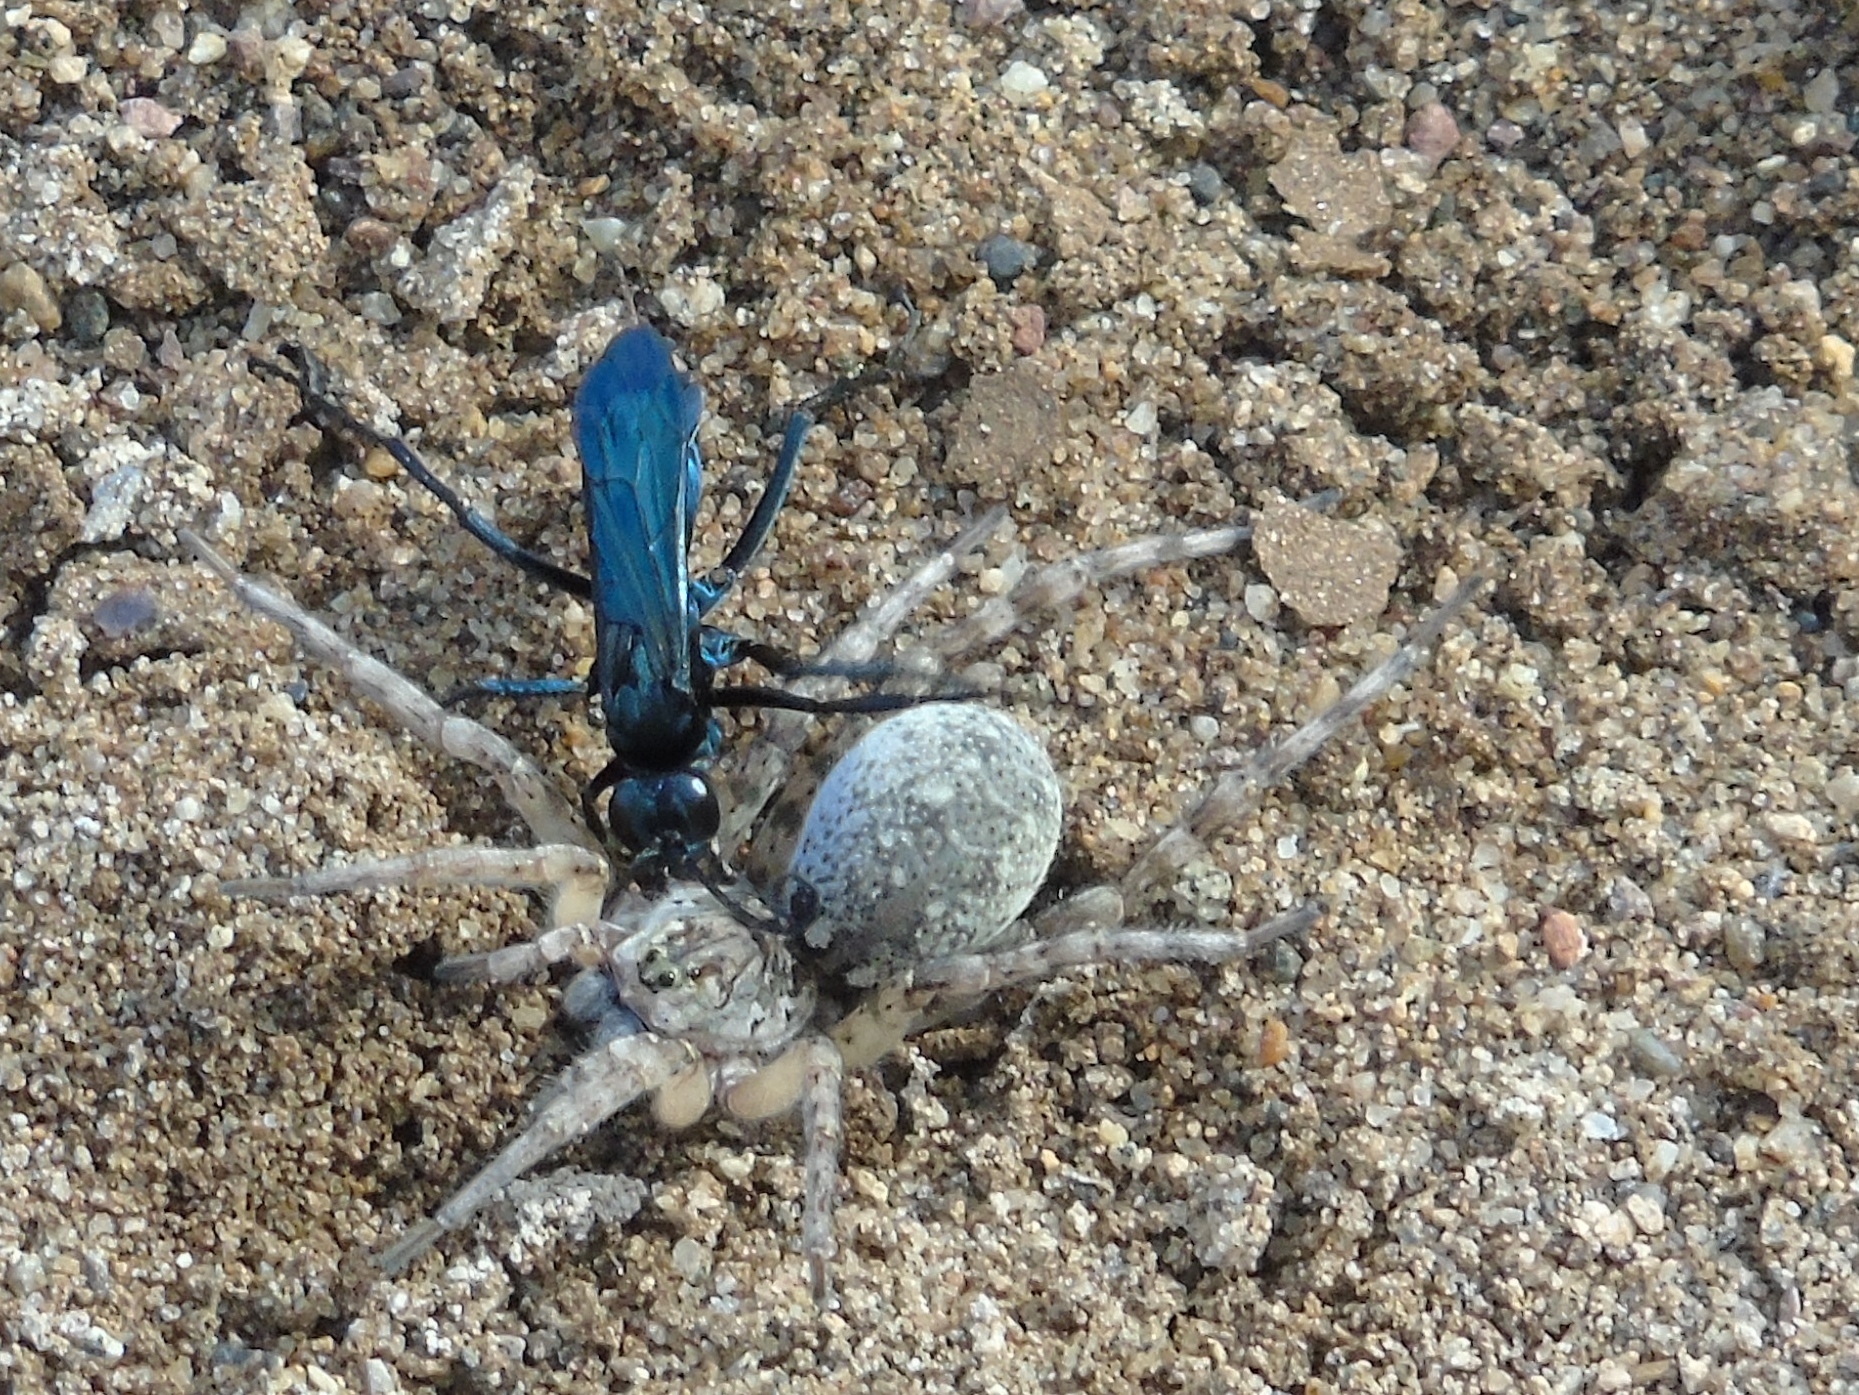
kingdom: Animalia
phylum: Arthropoda
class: Arachnida
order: Araneae
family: Lycosidae
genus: Arctosa
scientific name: Arctosa
